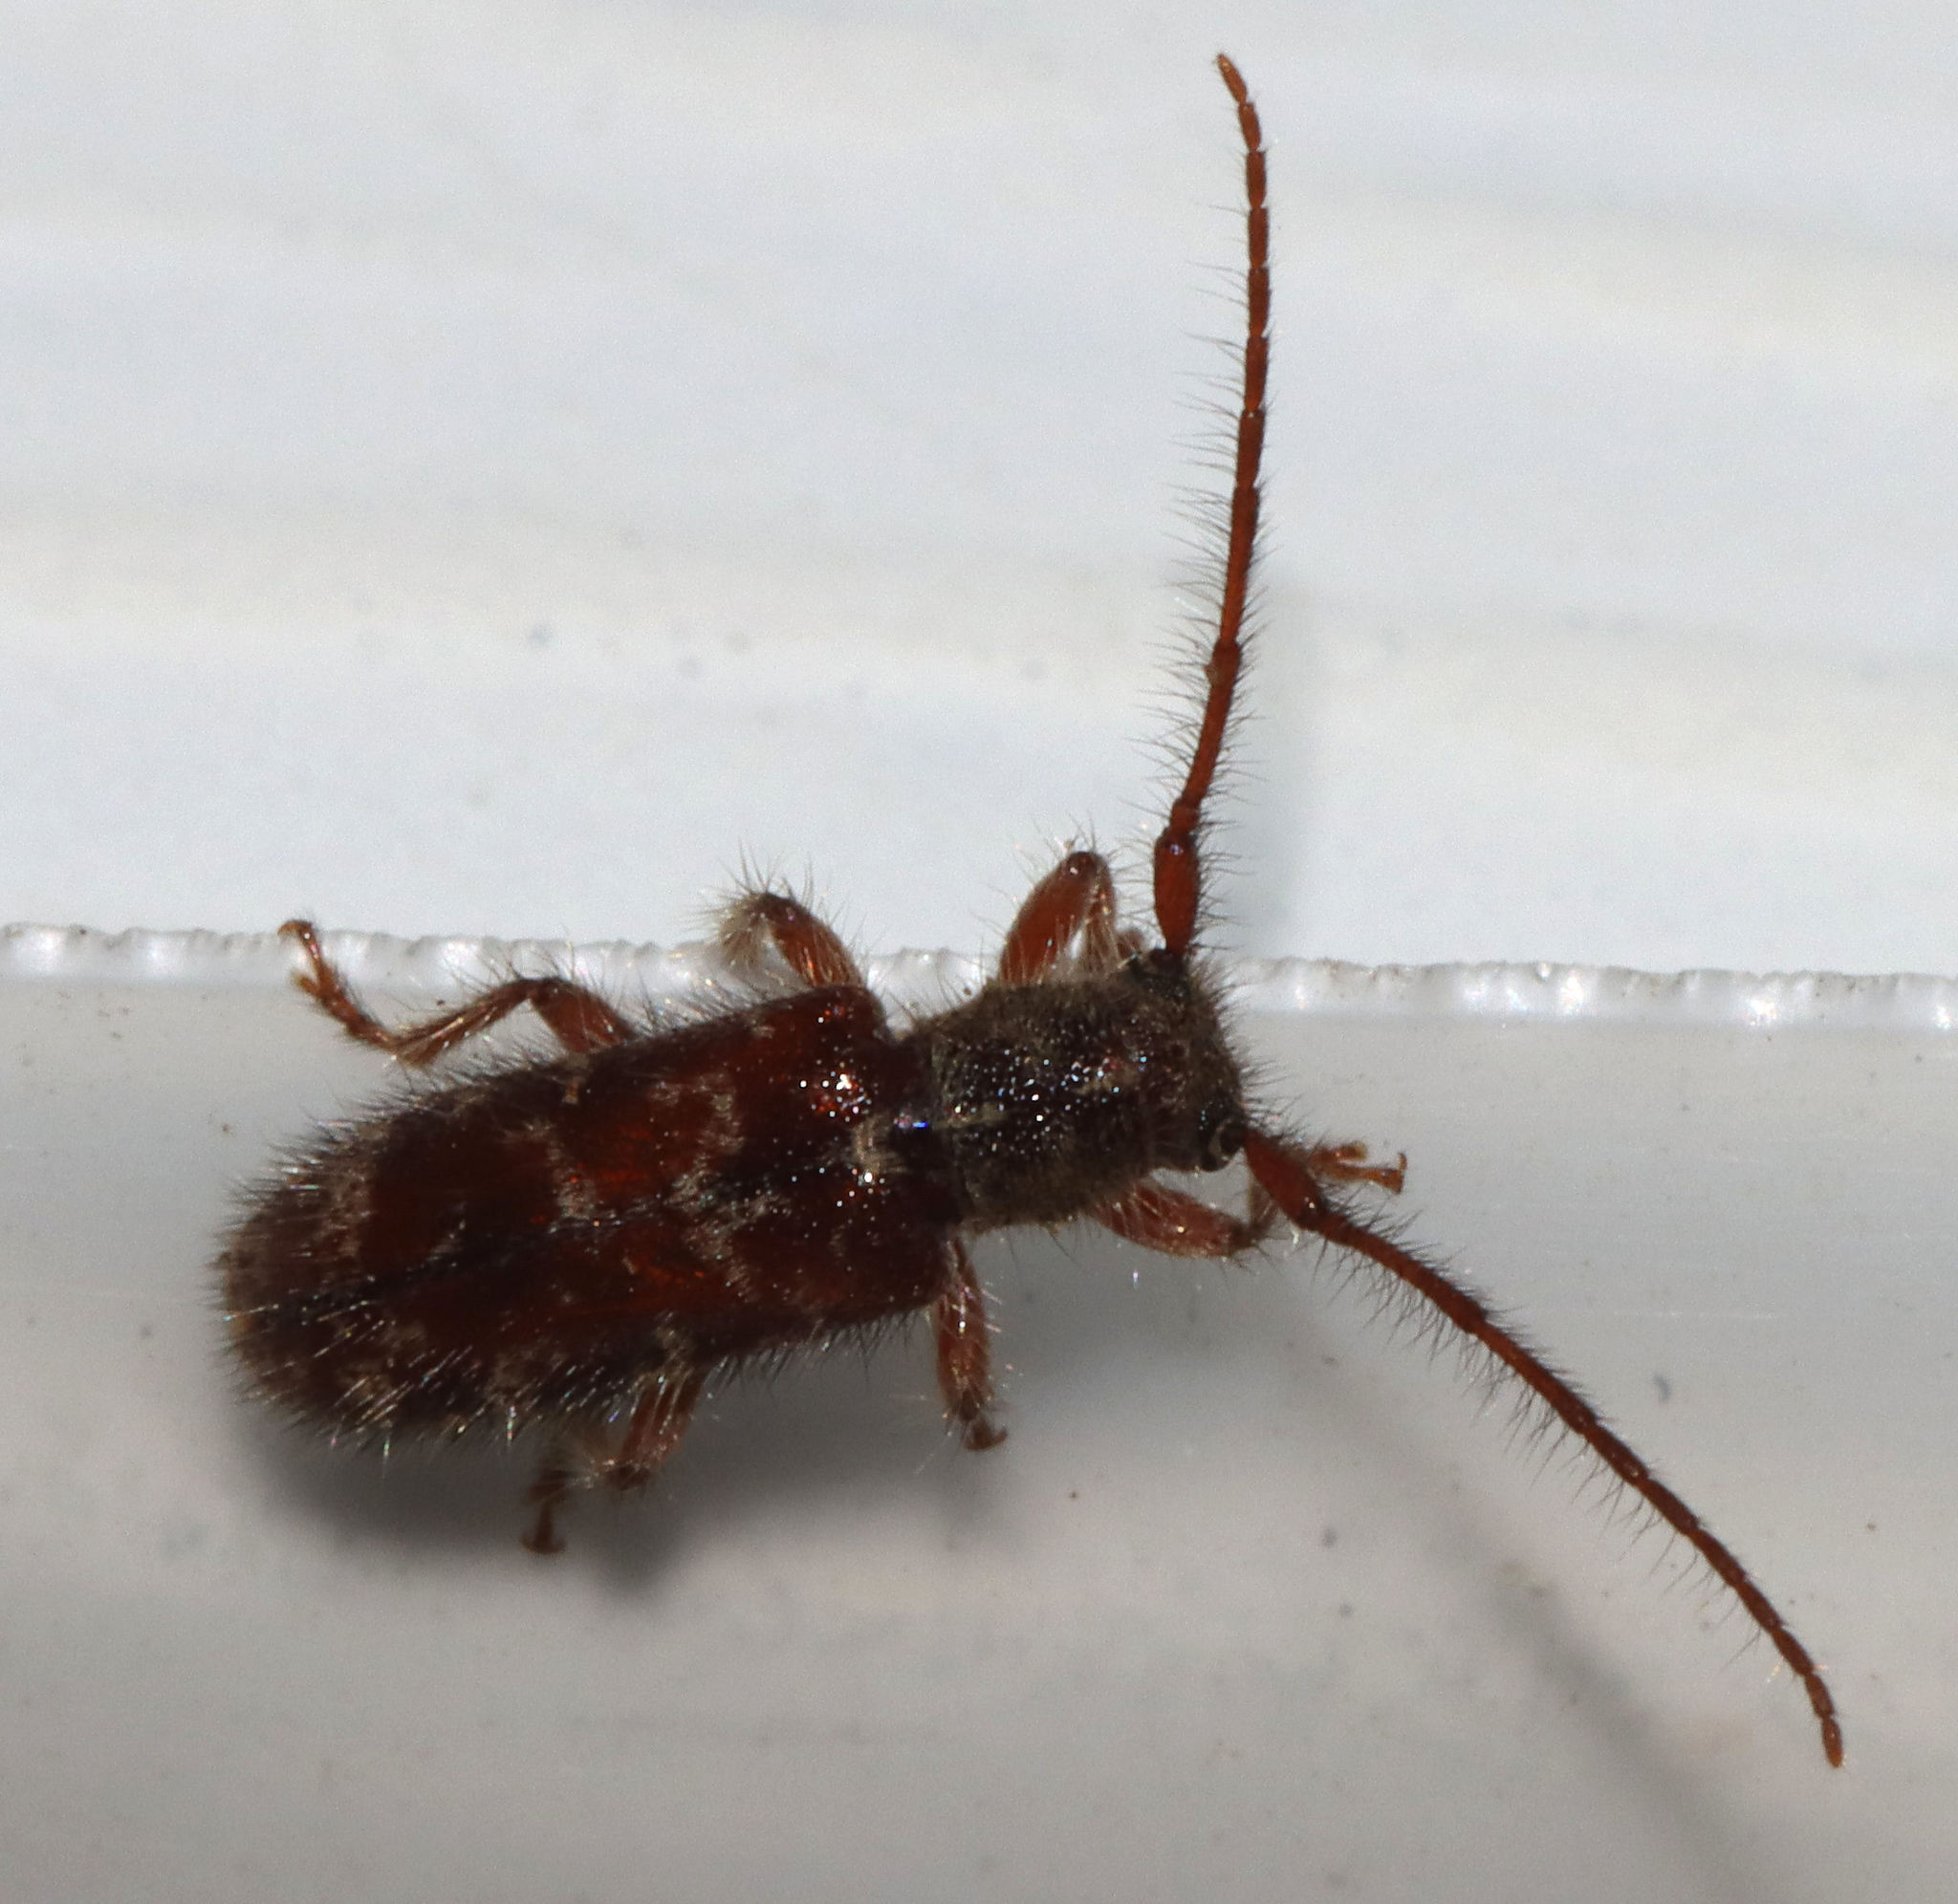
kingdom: Animalia
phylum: Arthropoda
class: Insecta
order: Coleoptera
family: Cerambycidae
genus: Eupogonius
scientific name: Eupogonius tomentosus
